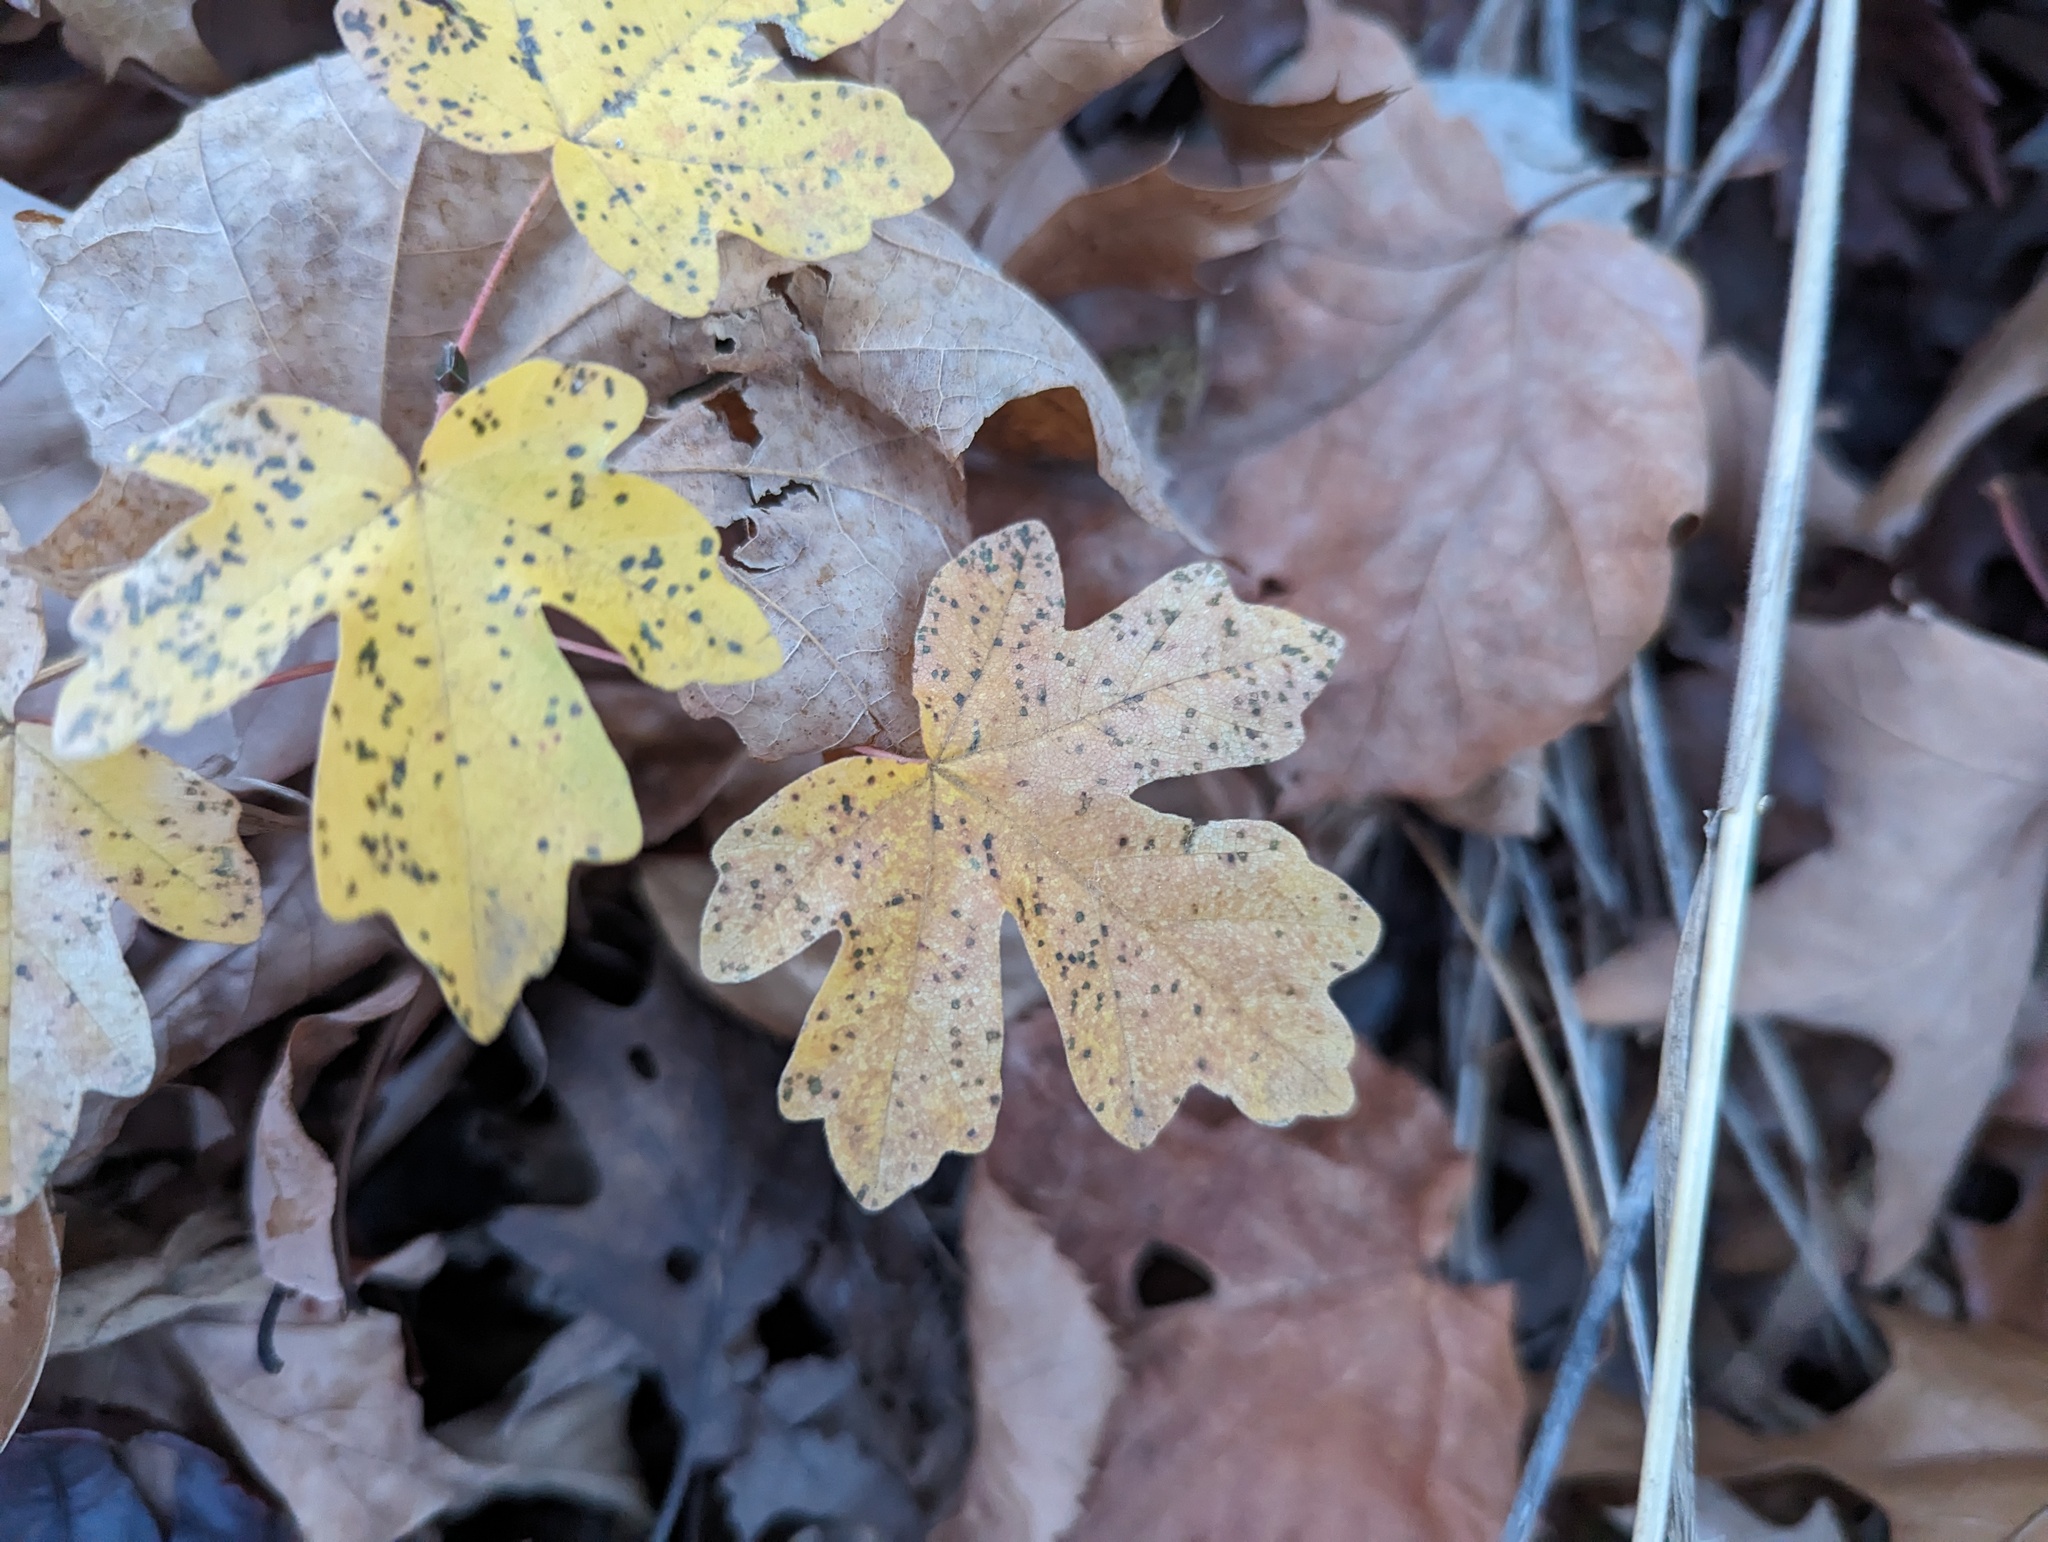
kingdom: Plantae
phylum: Tracheophyta
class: Magnoliopsida
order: Sapindales
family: Sapindaceae
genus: Acer
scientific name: Acer campestre
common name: Field maple
